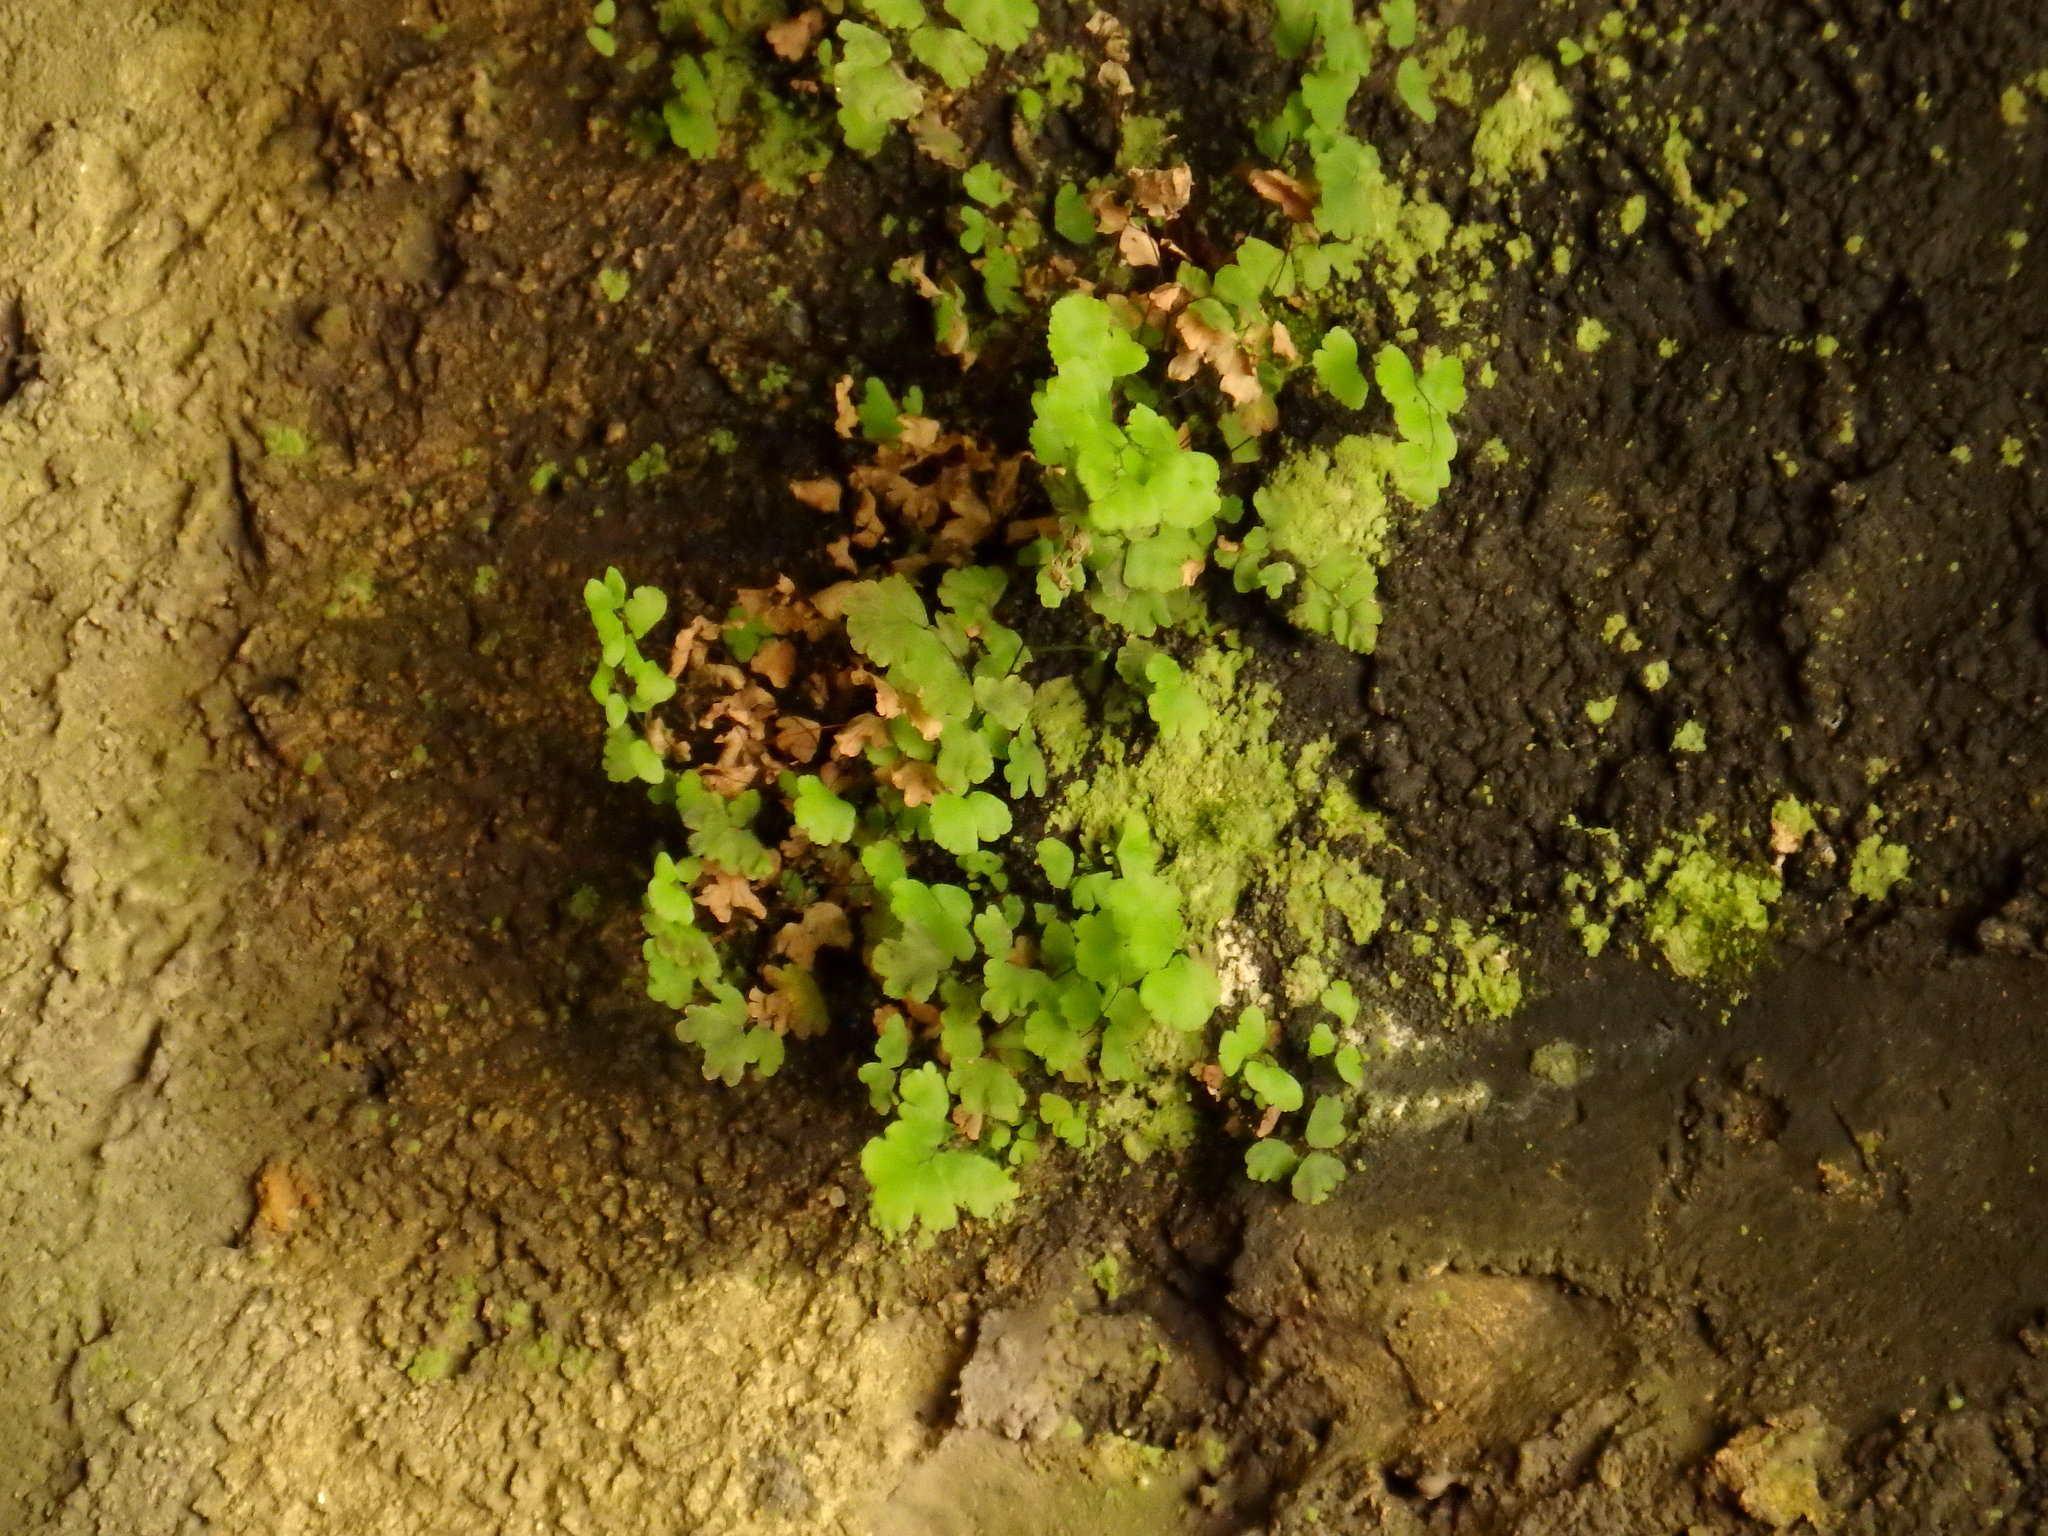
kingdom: Plantae
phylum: Tracheophyta
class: Polypodiopsida
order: Polypodiales
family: Pteridaceae
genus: Adiantum
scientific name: Adiantum capillus-veneris
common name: Maidenhair fern
